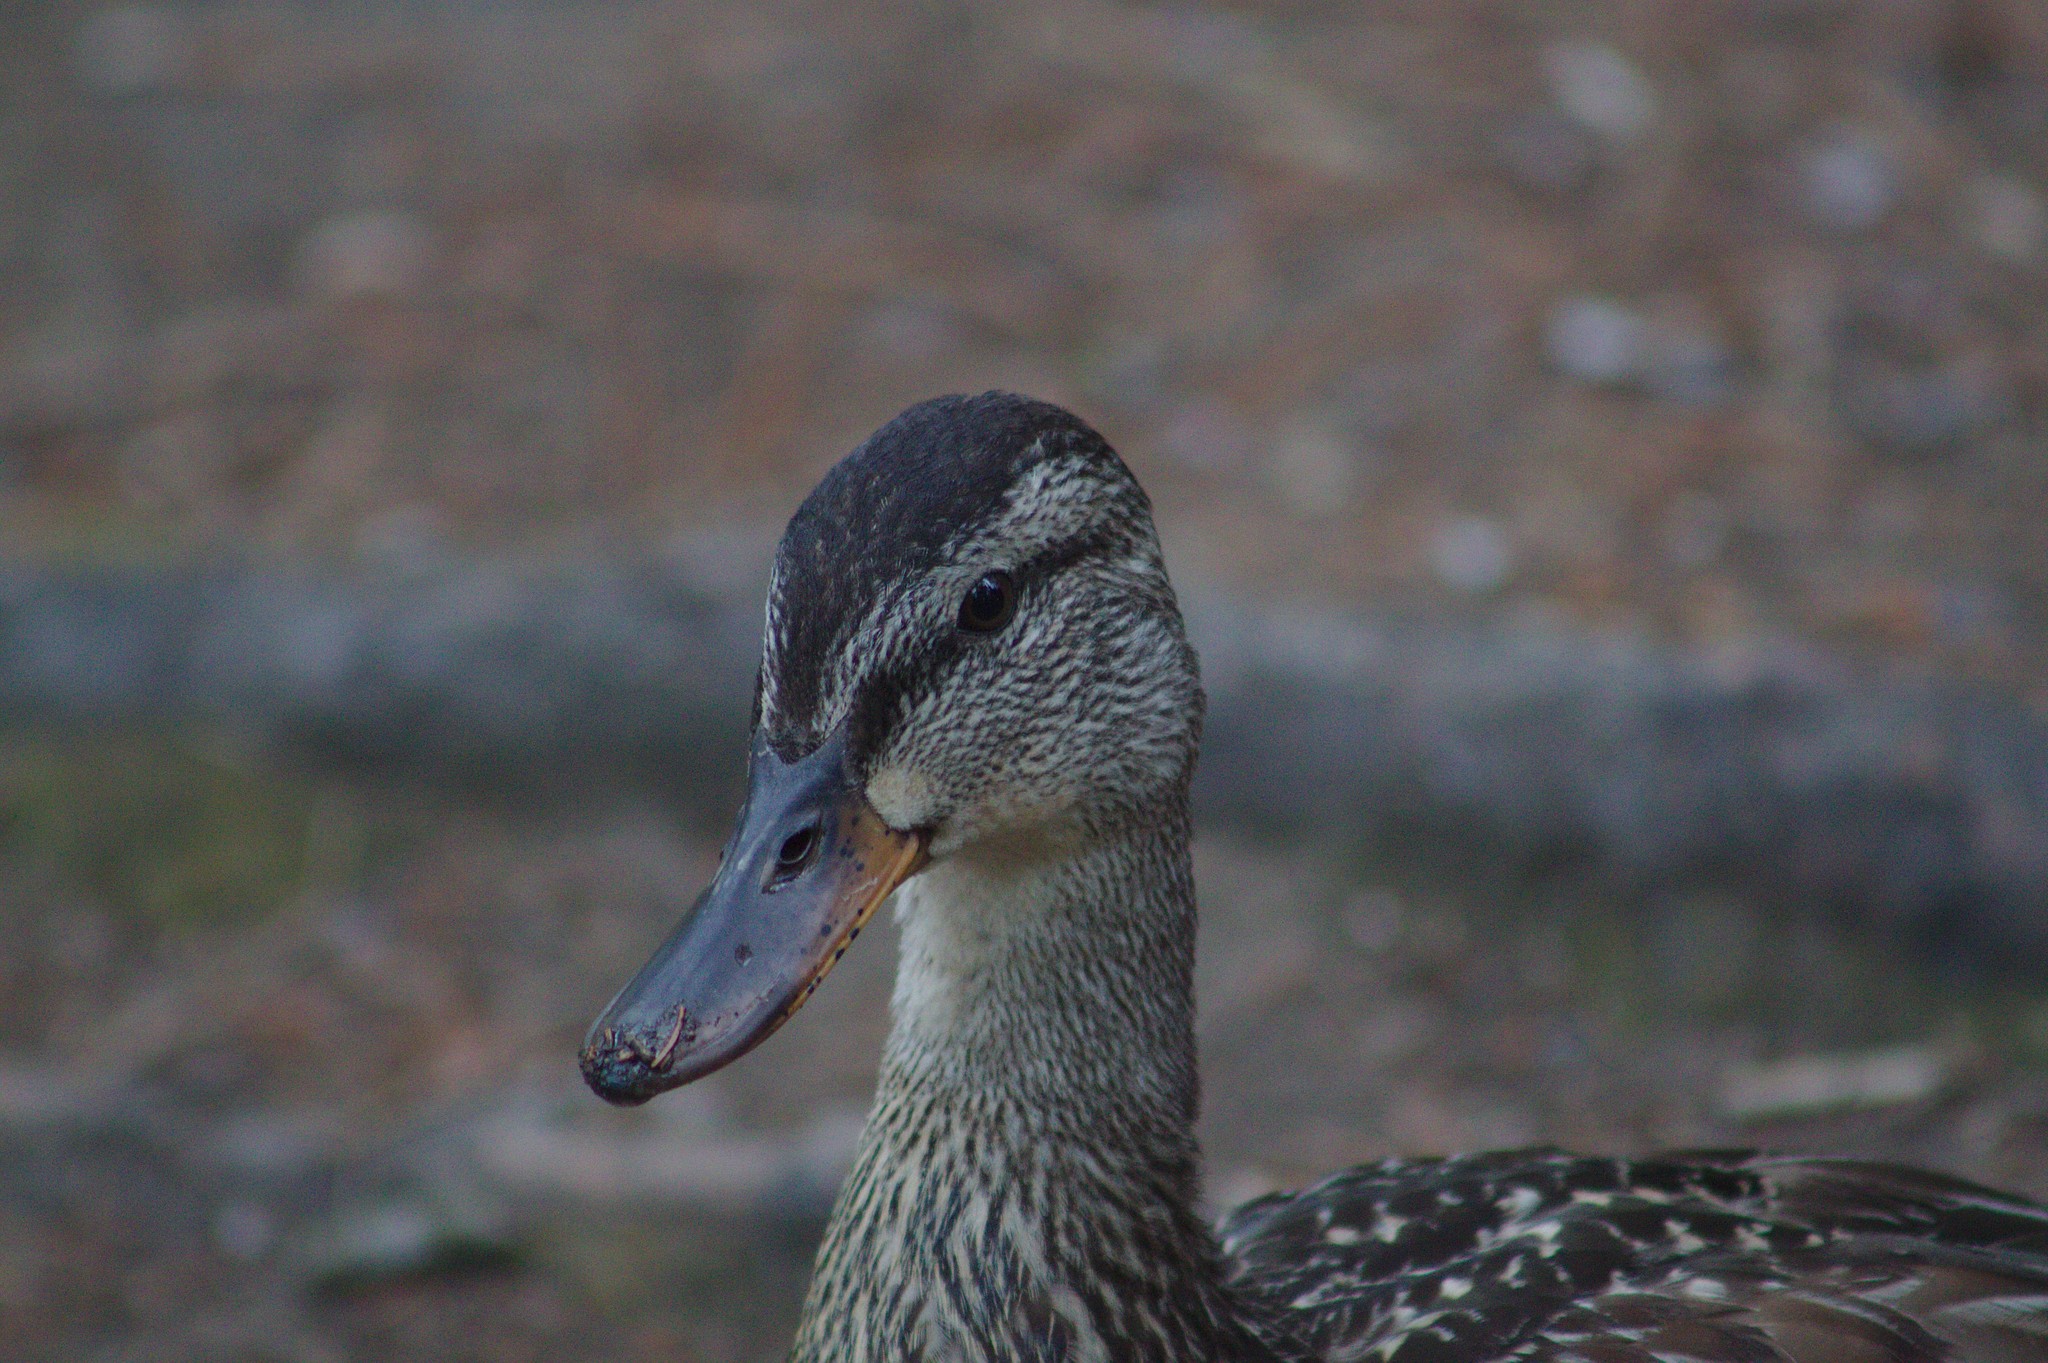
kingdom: Animalia
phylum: Chordata
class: Aves
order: Anseriformes
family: Anatidae
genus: Anas
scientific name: Anas platyrhynchos
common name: Mallard
